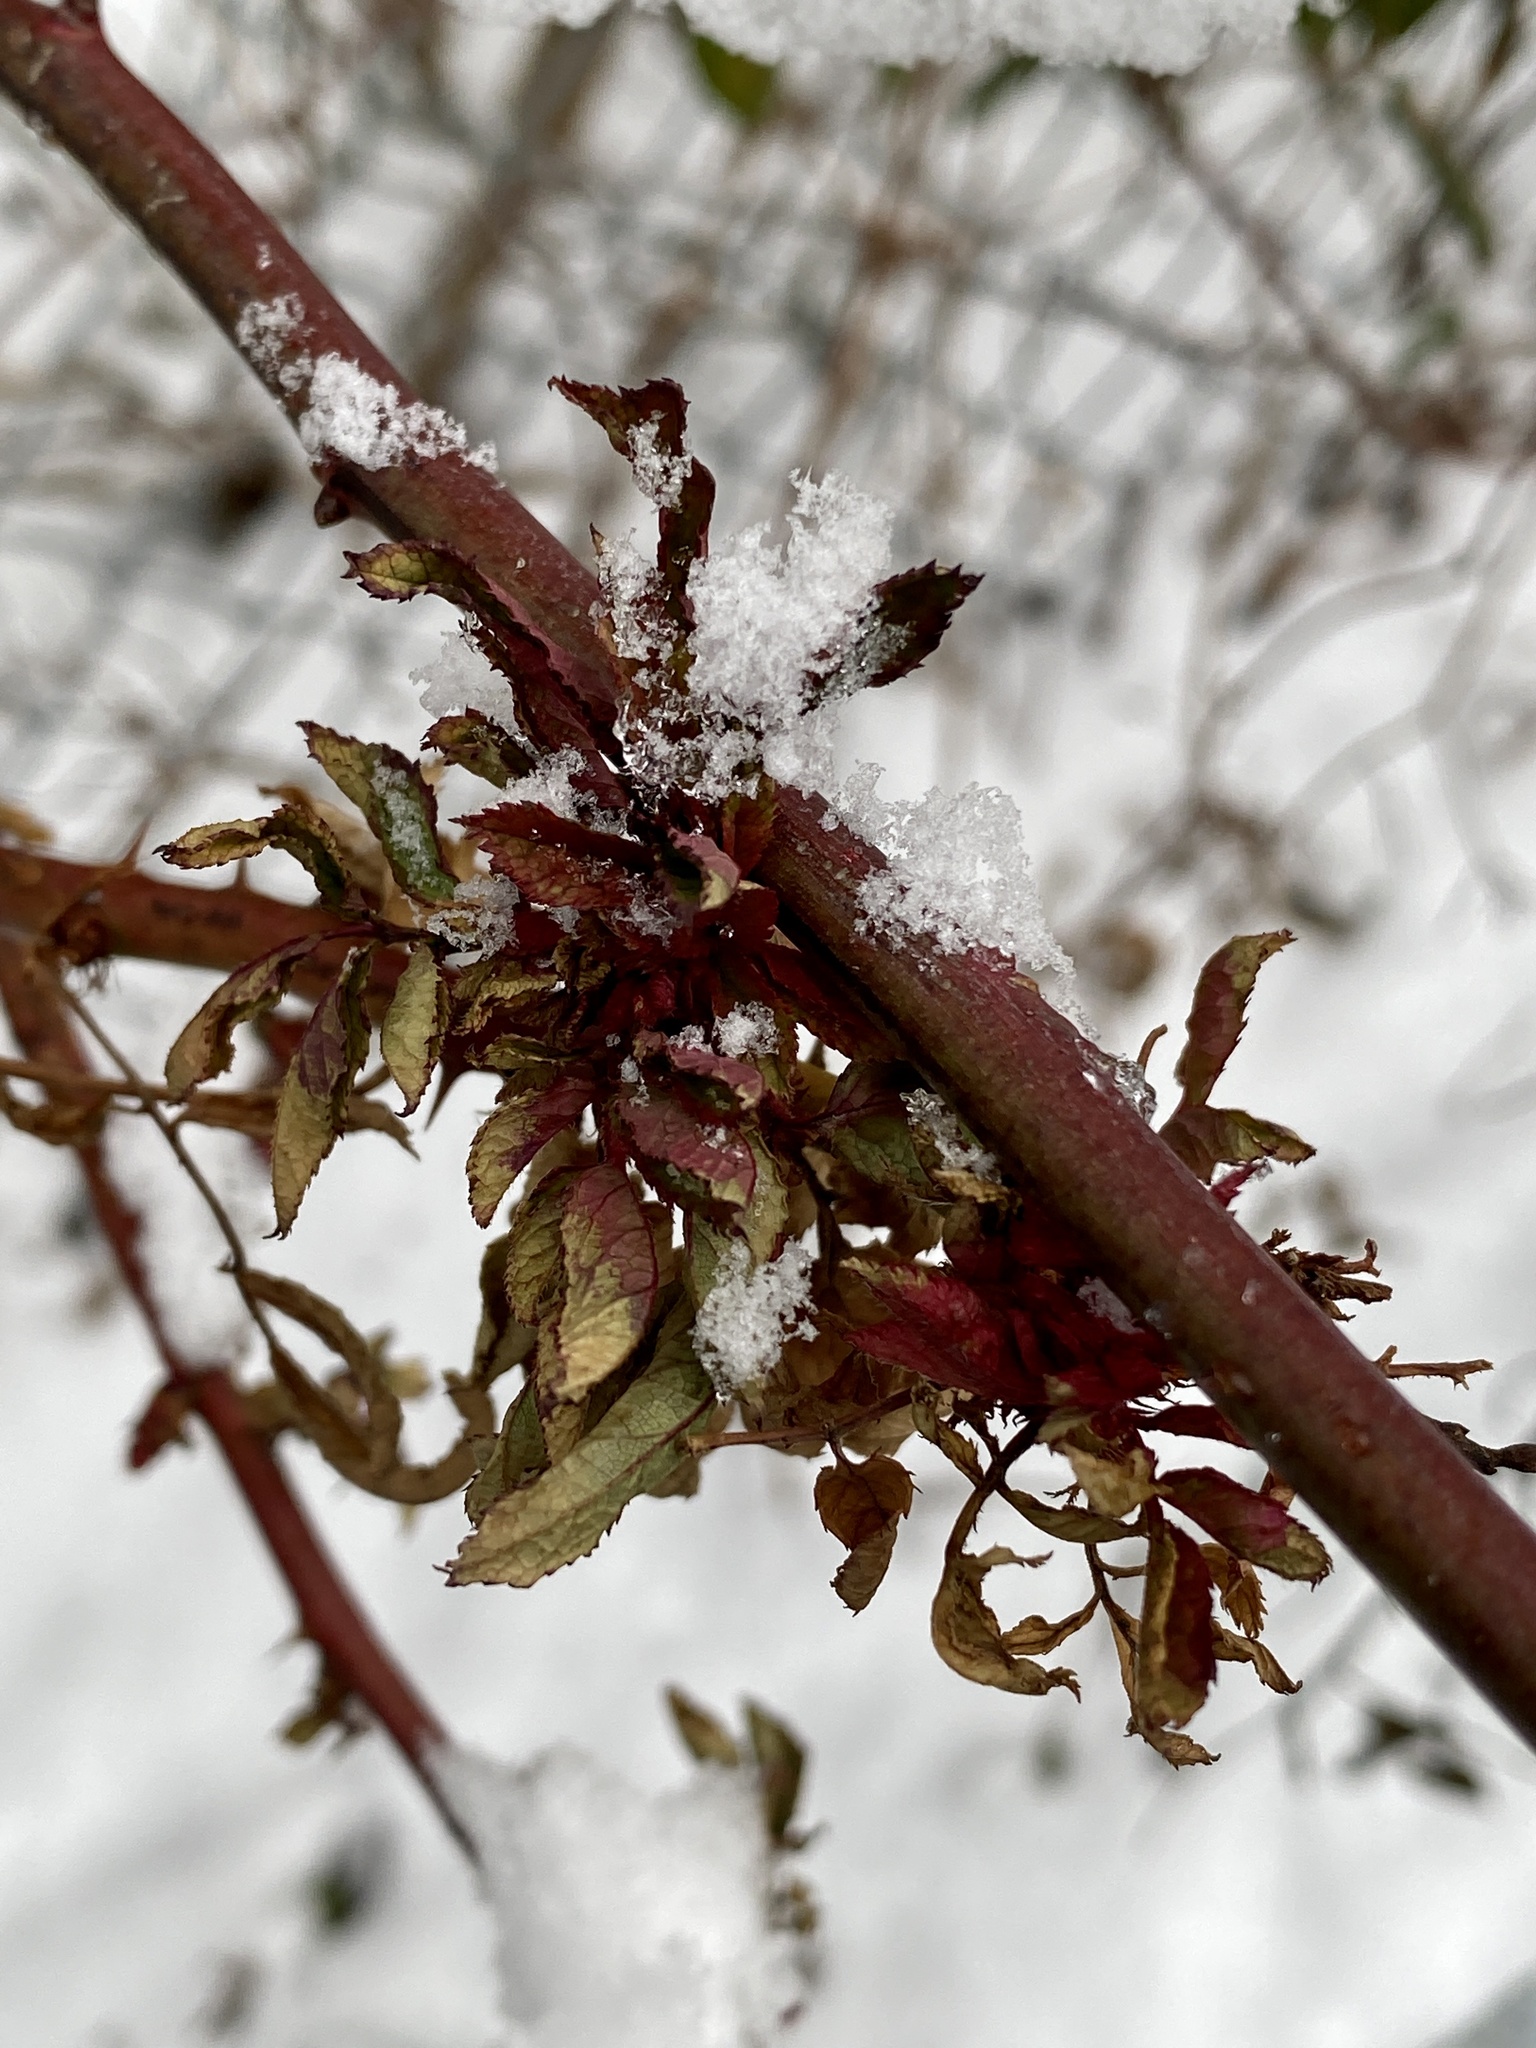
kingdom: Viruses
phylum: Negarnaviricota
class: Ellioviricetes
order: Bunyavirales
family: Fimoviridae
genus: Emaravirus
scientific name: Emaravirus rosae
